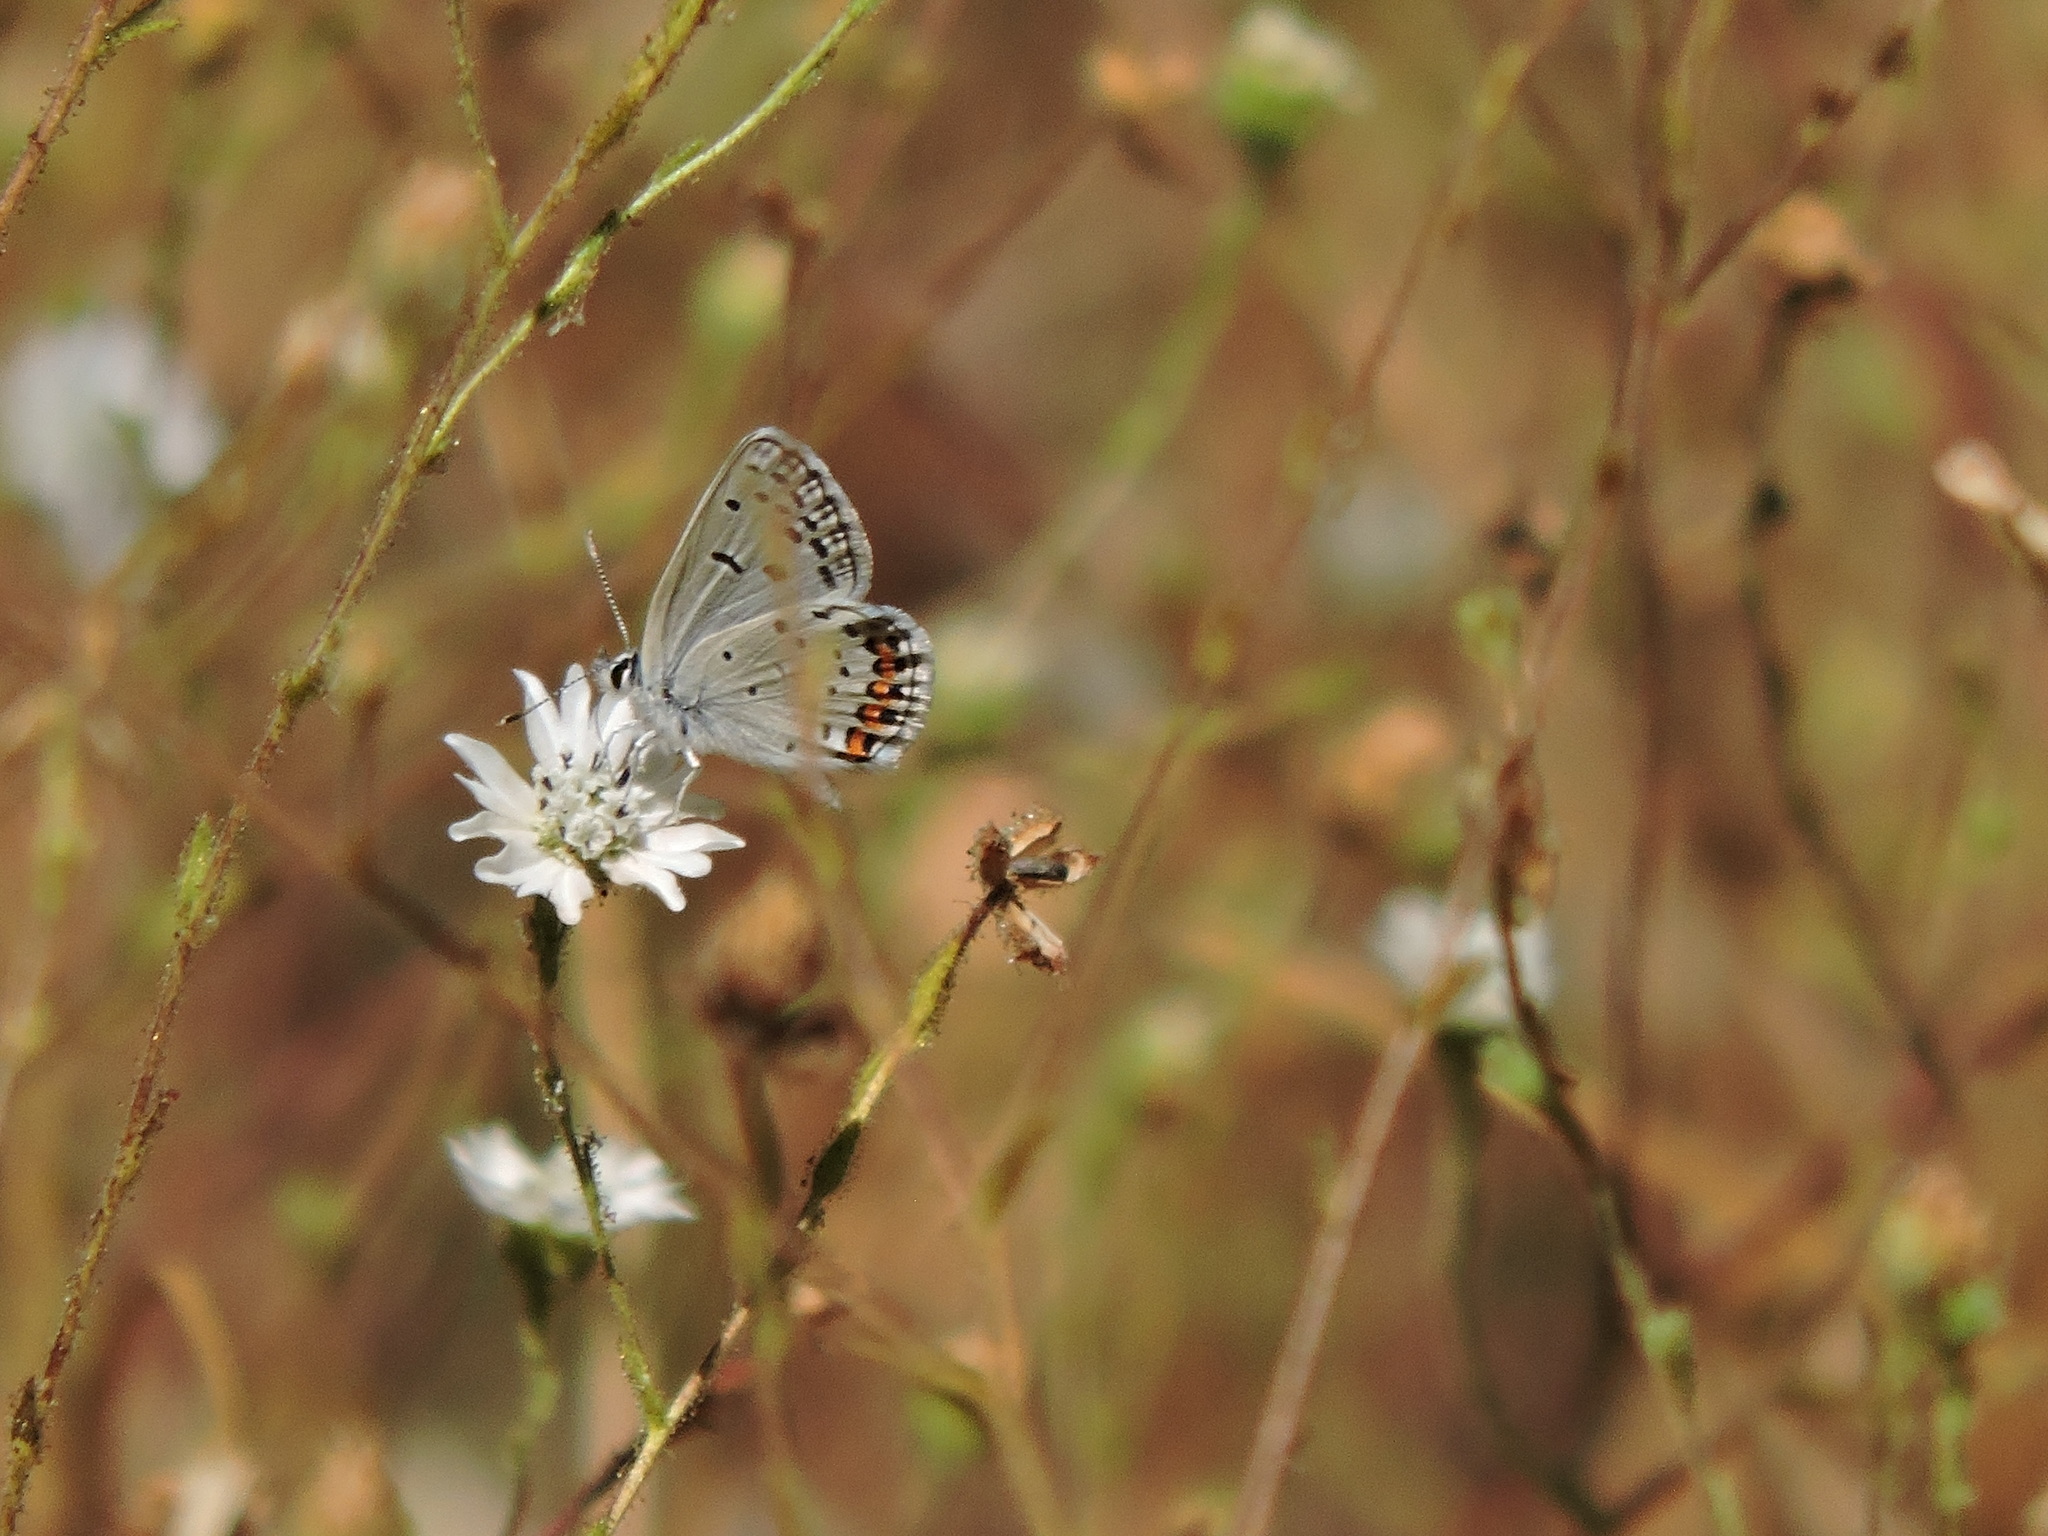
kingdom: Animalia
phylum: Arthropoda
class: Insecta
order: Lepidoptera
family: Lycaenidae
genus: Icaricia
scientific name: Icaricia acmon
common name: Acmon blue
